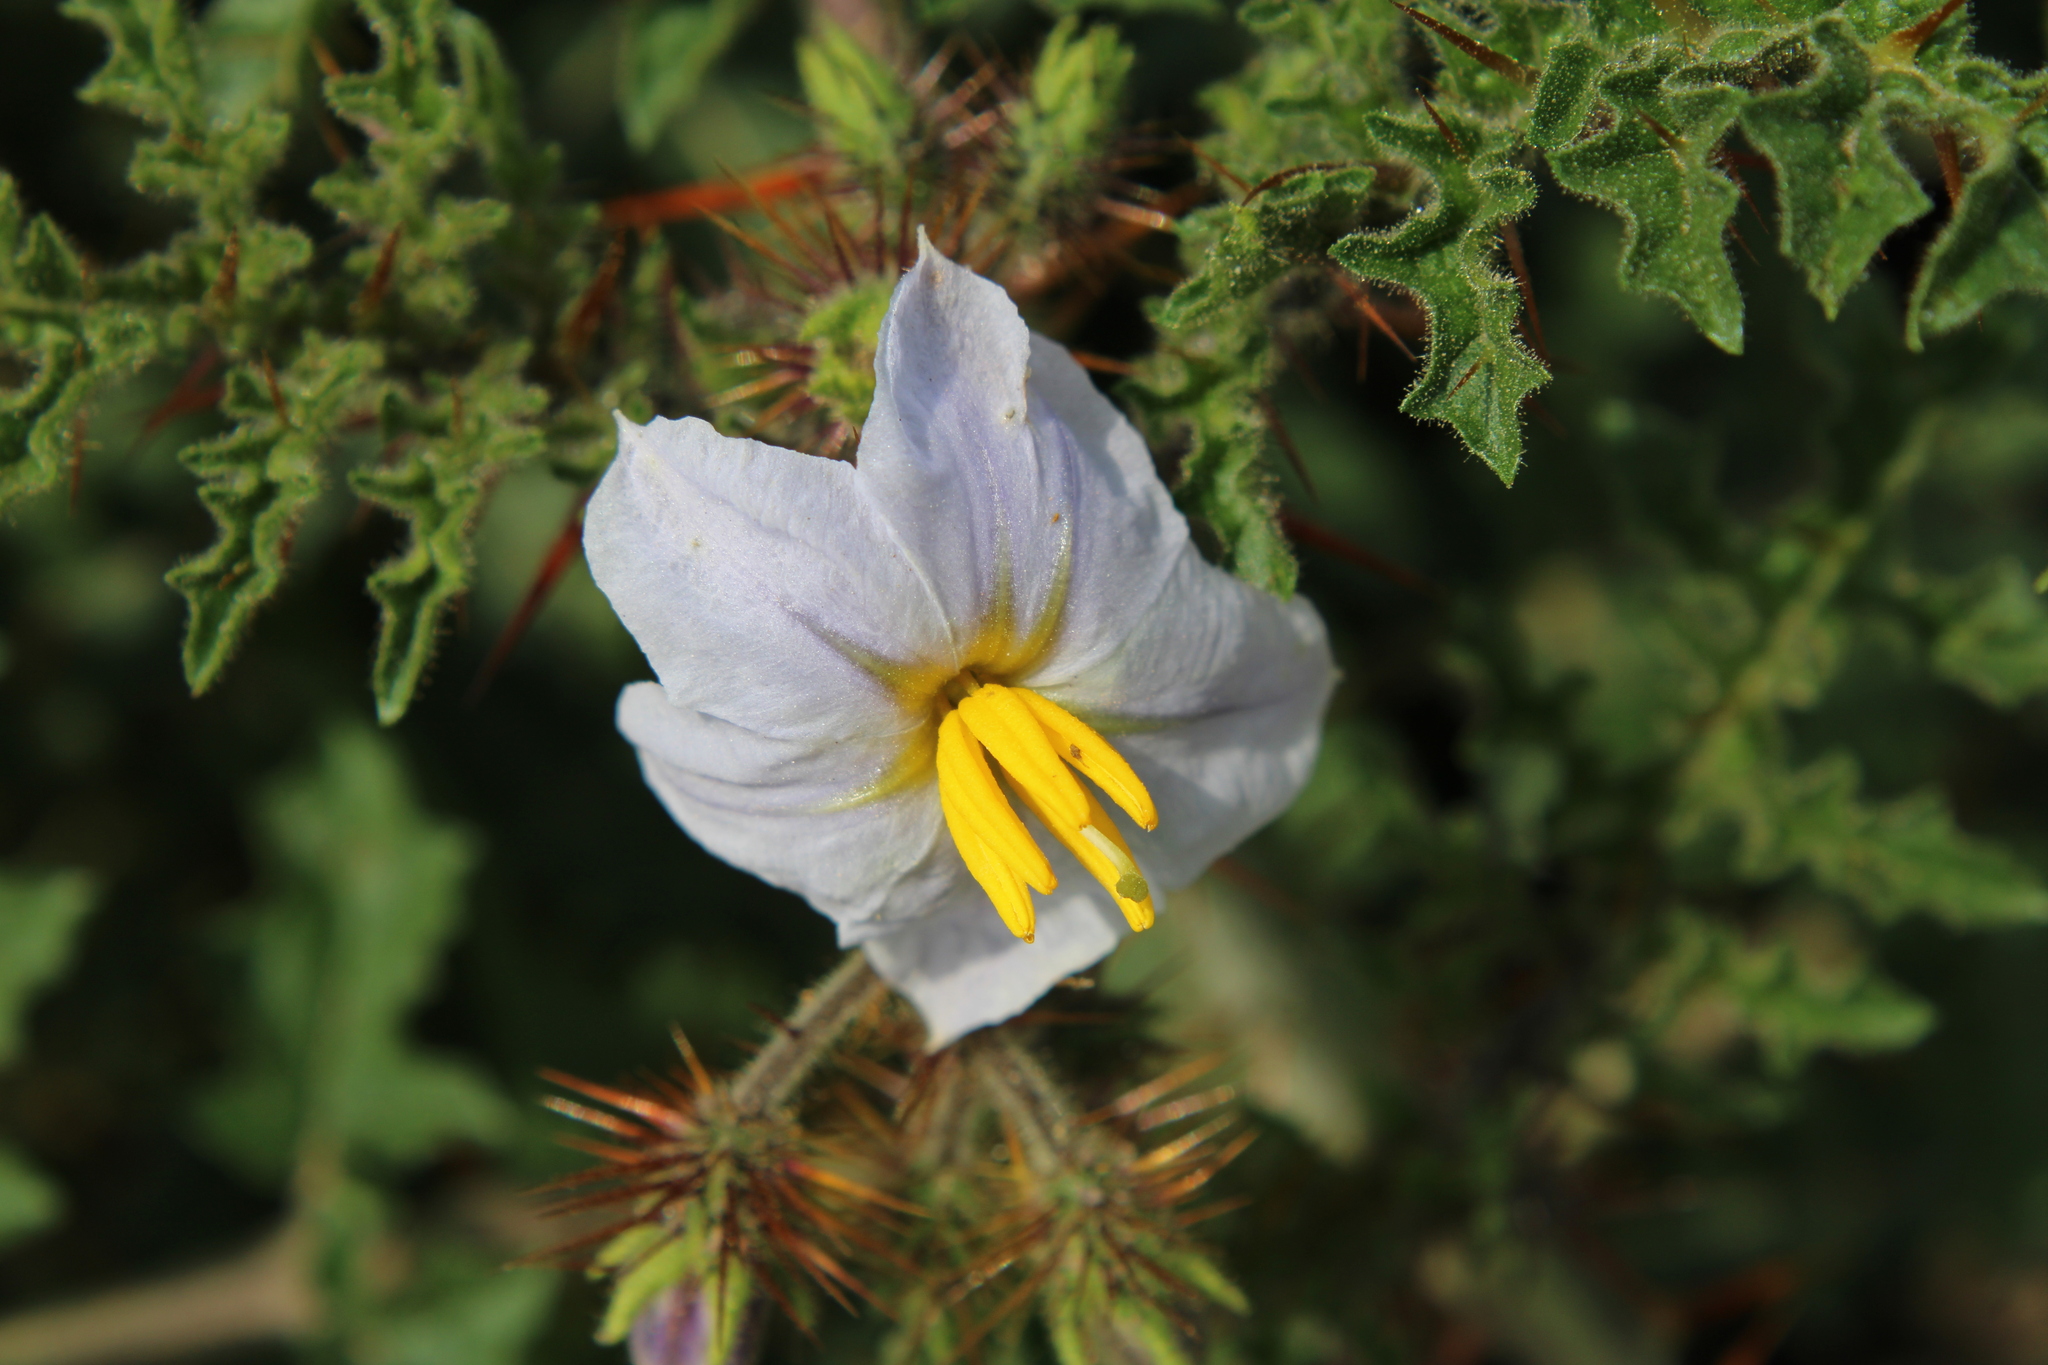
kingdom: Plantae
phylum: Tracheophyta
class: Magnoliopsida
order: Solanales
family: Solanaceae
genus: Solanum
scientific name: Solanum sisymbriifolium
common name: Red buffalo-bur
